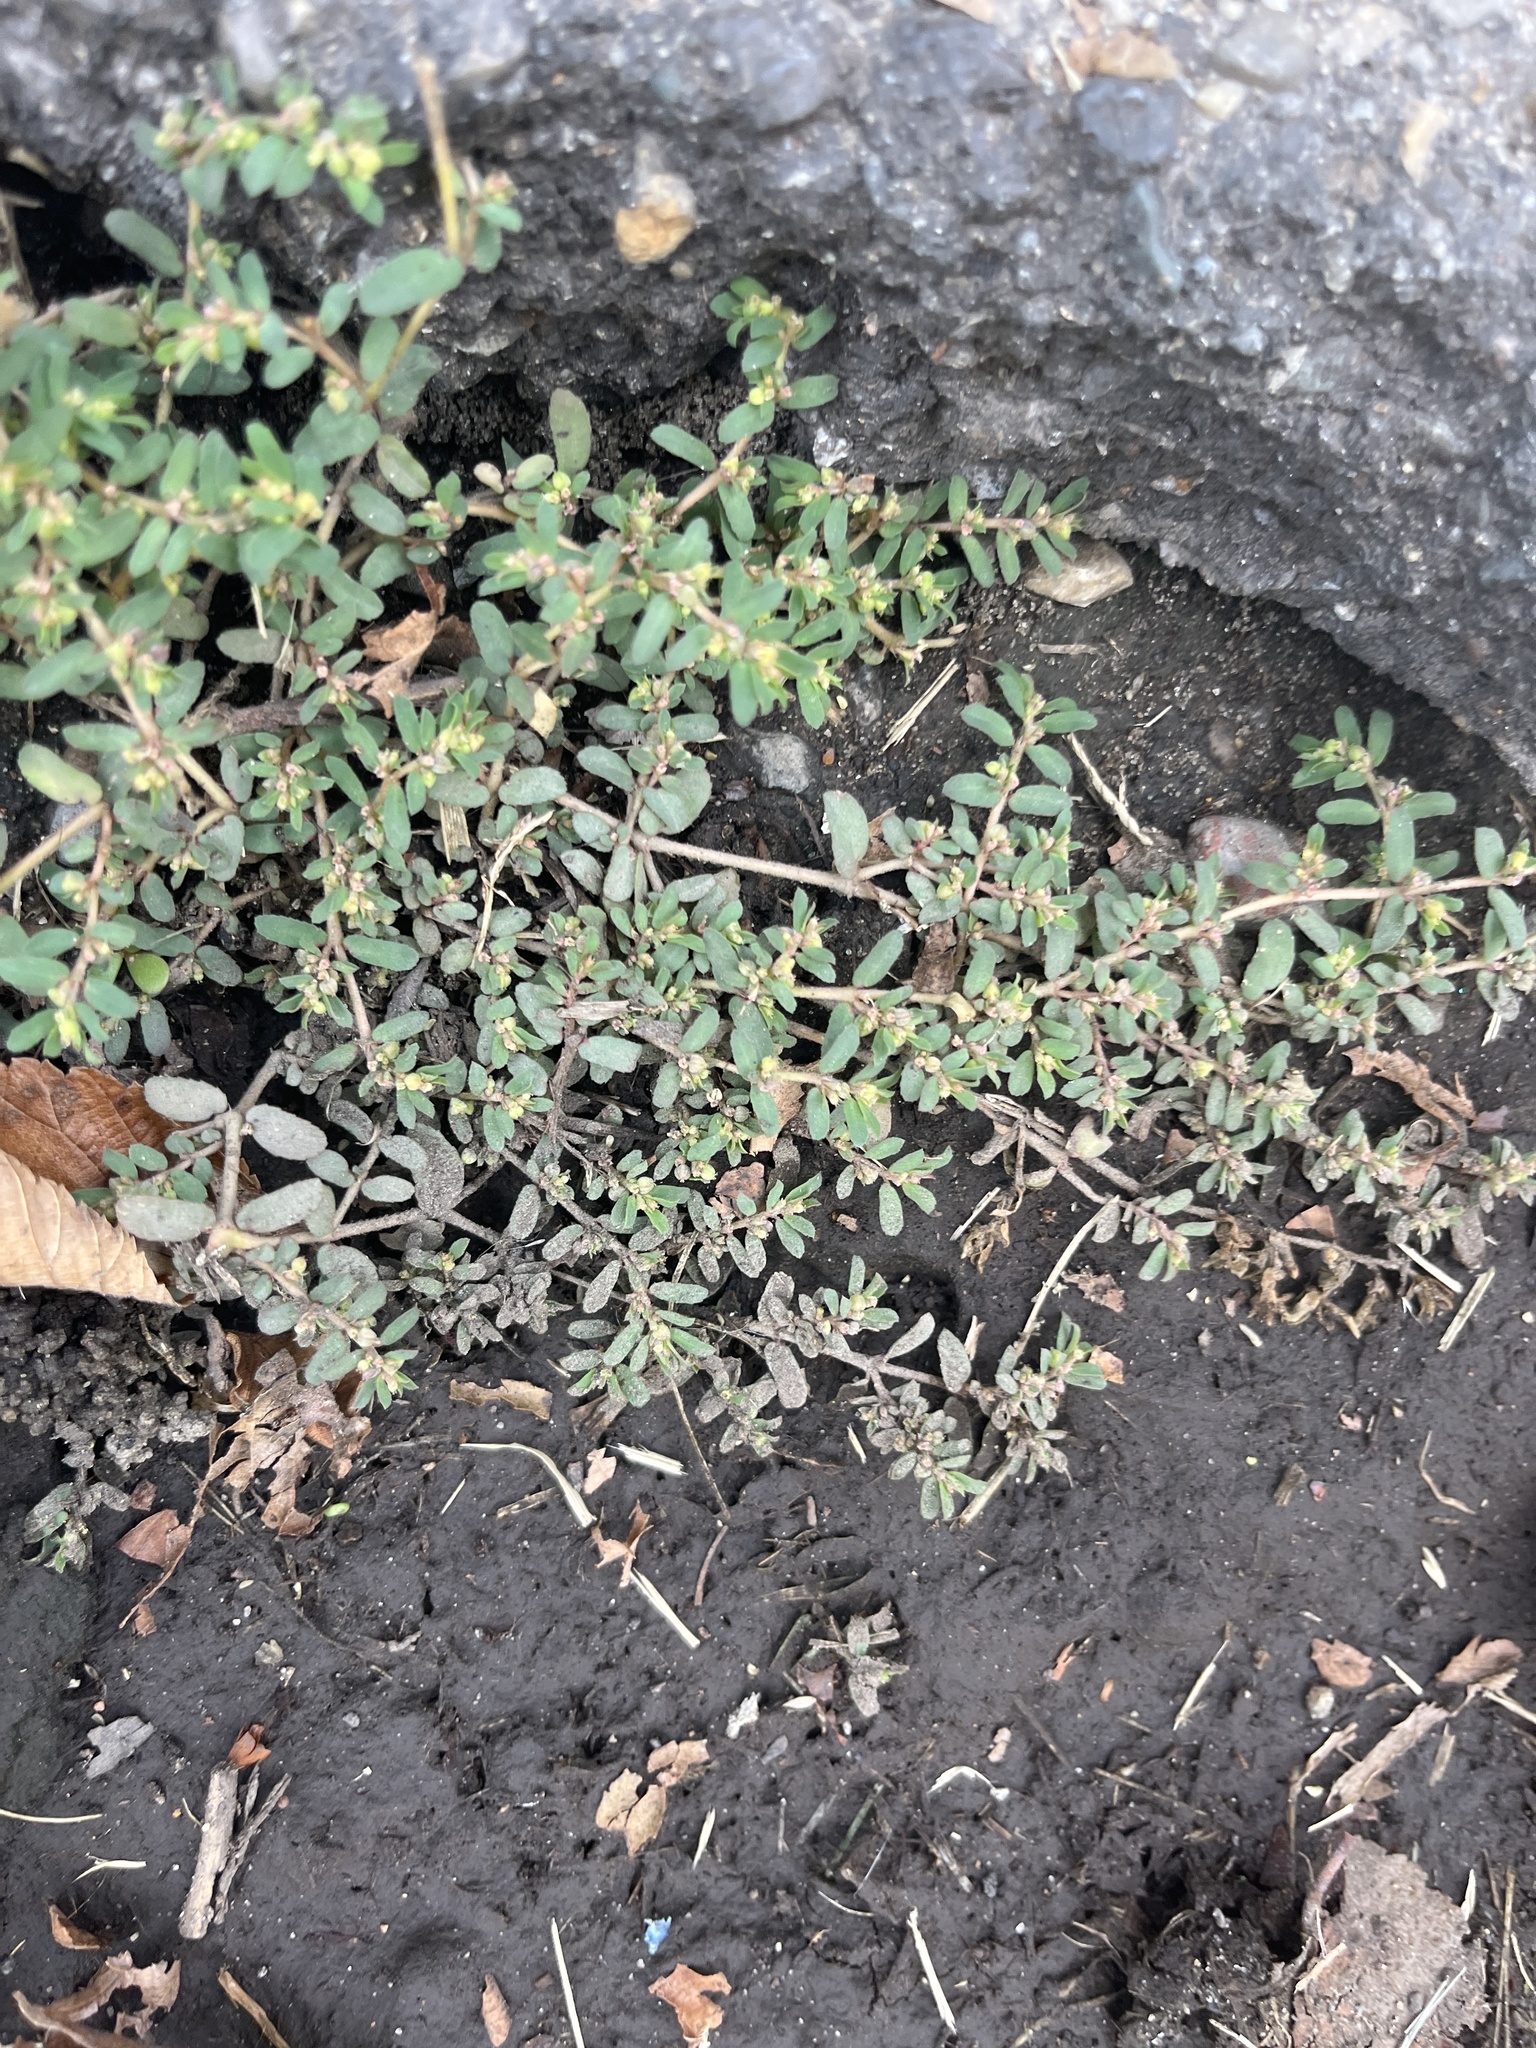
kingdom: Plantae
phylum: Tracheophyta
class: Magnoliopsida
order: Malpighiales
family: Euphorbiaceae
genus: Euphorbia
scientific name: Euphorbia maculata
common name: Spotted spurge
